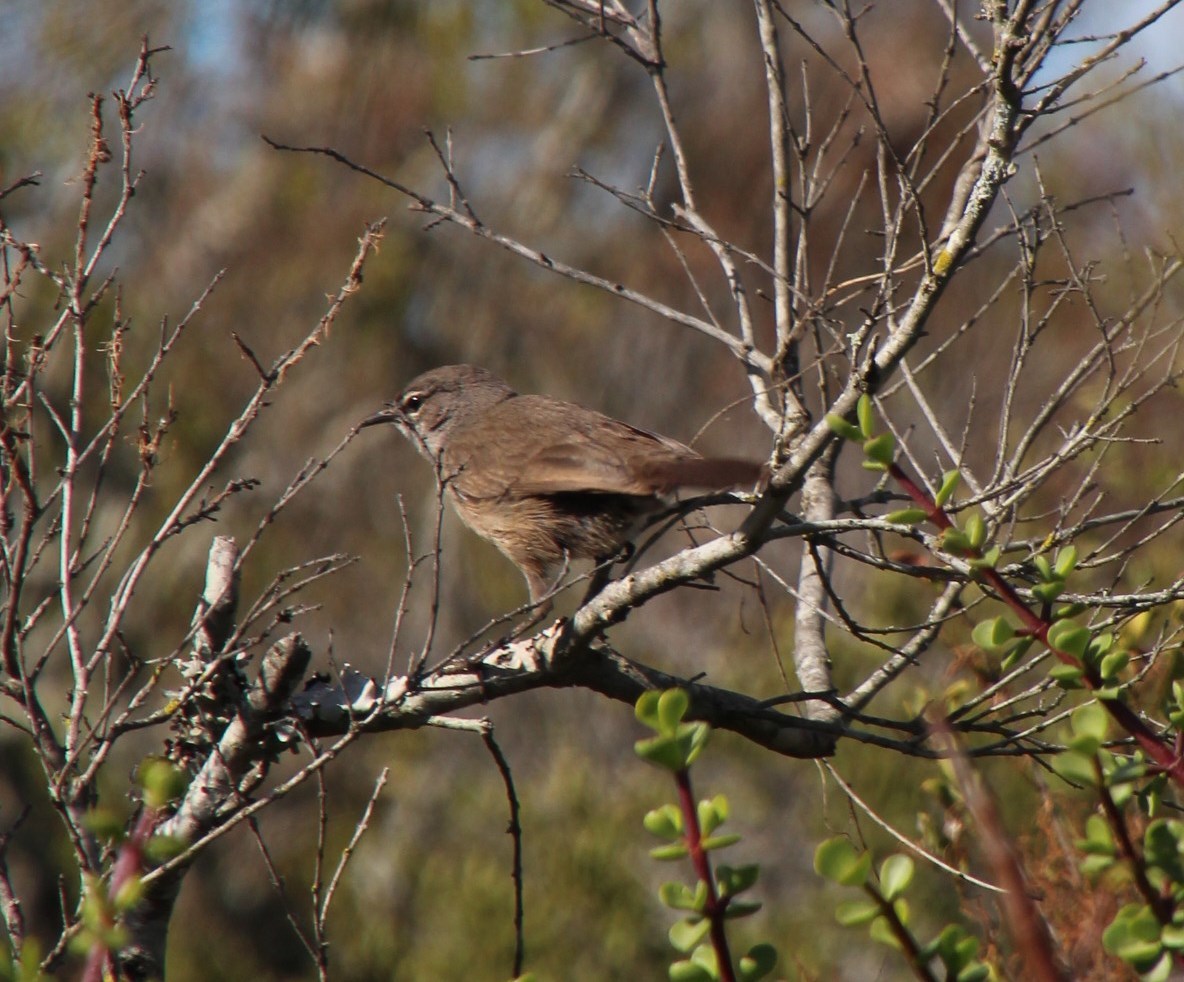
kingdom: Animalia
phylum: Chordata
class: Aves
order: Passeriformes
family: Muscicapidae
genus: Erythropygia
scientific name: Erythropygia coryphoeus
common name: Karoo scrub robin
